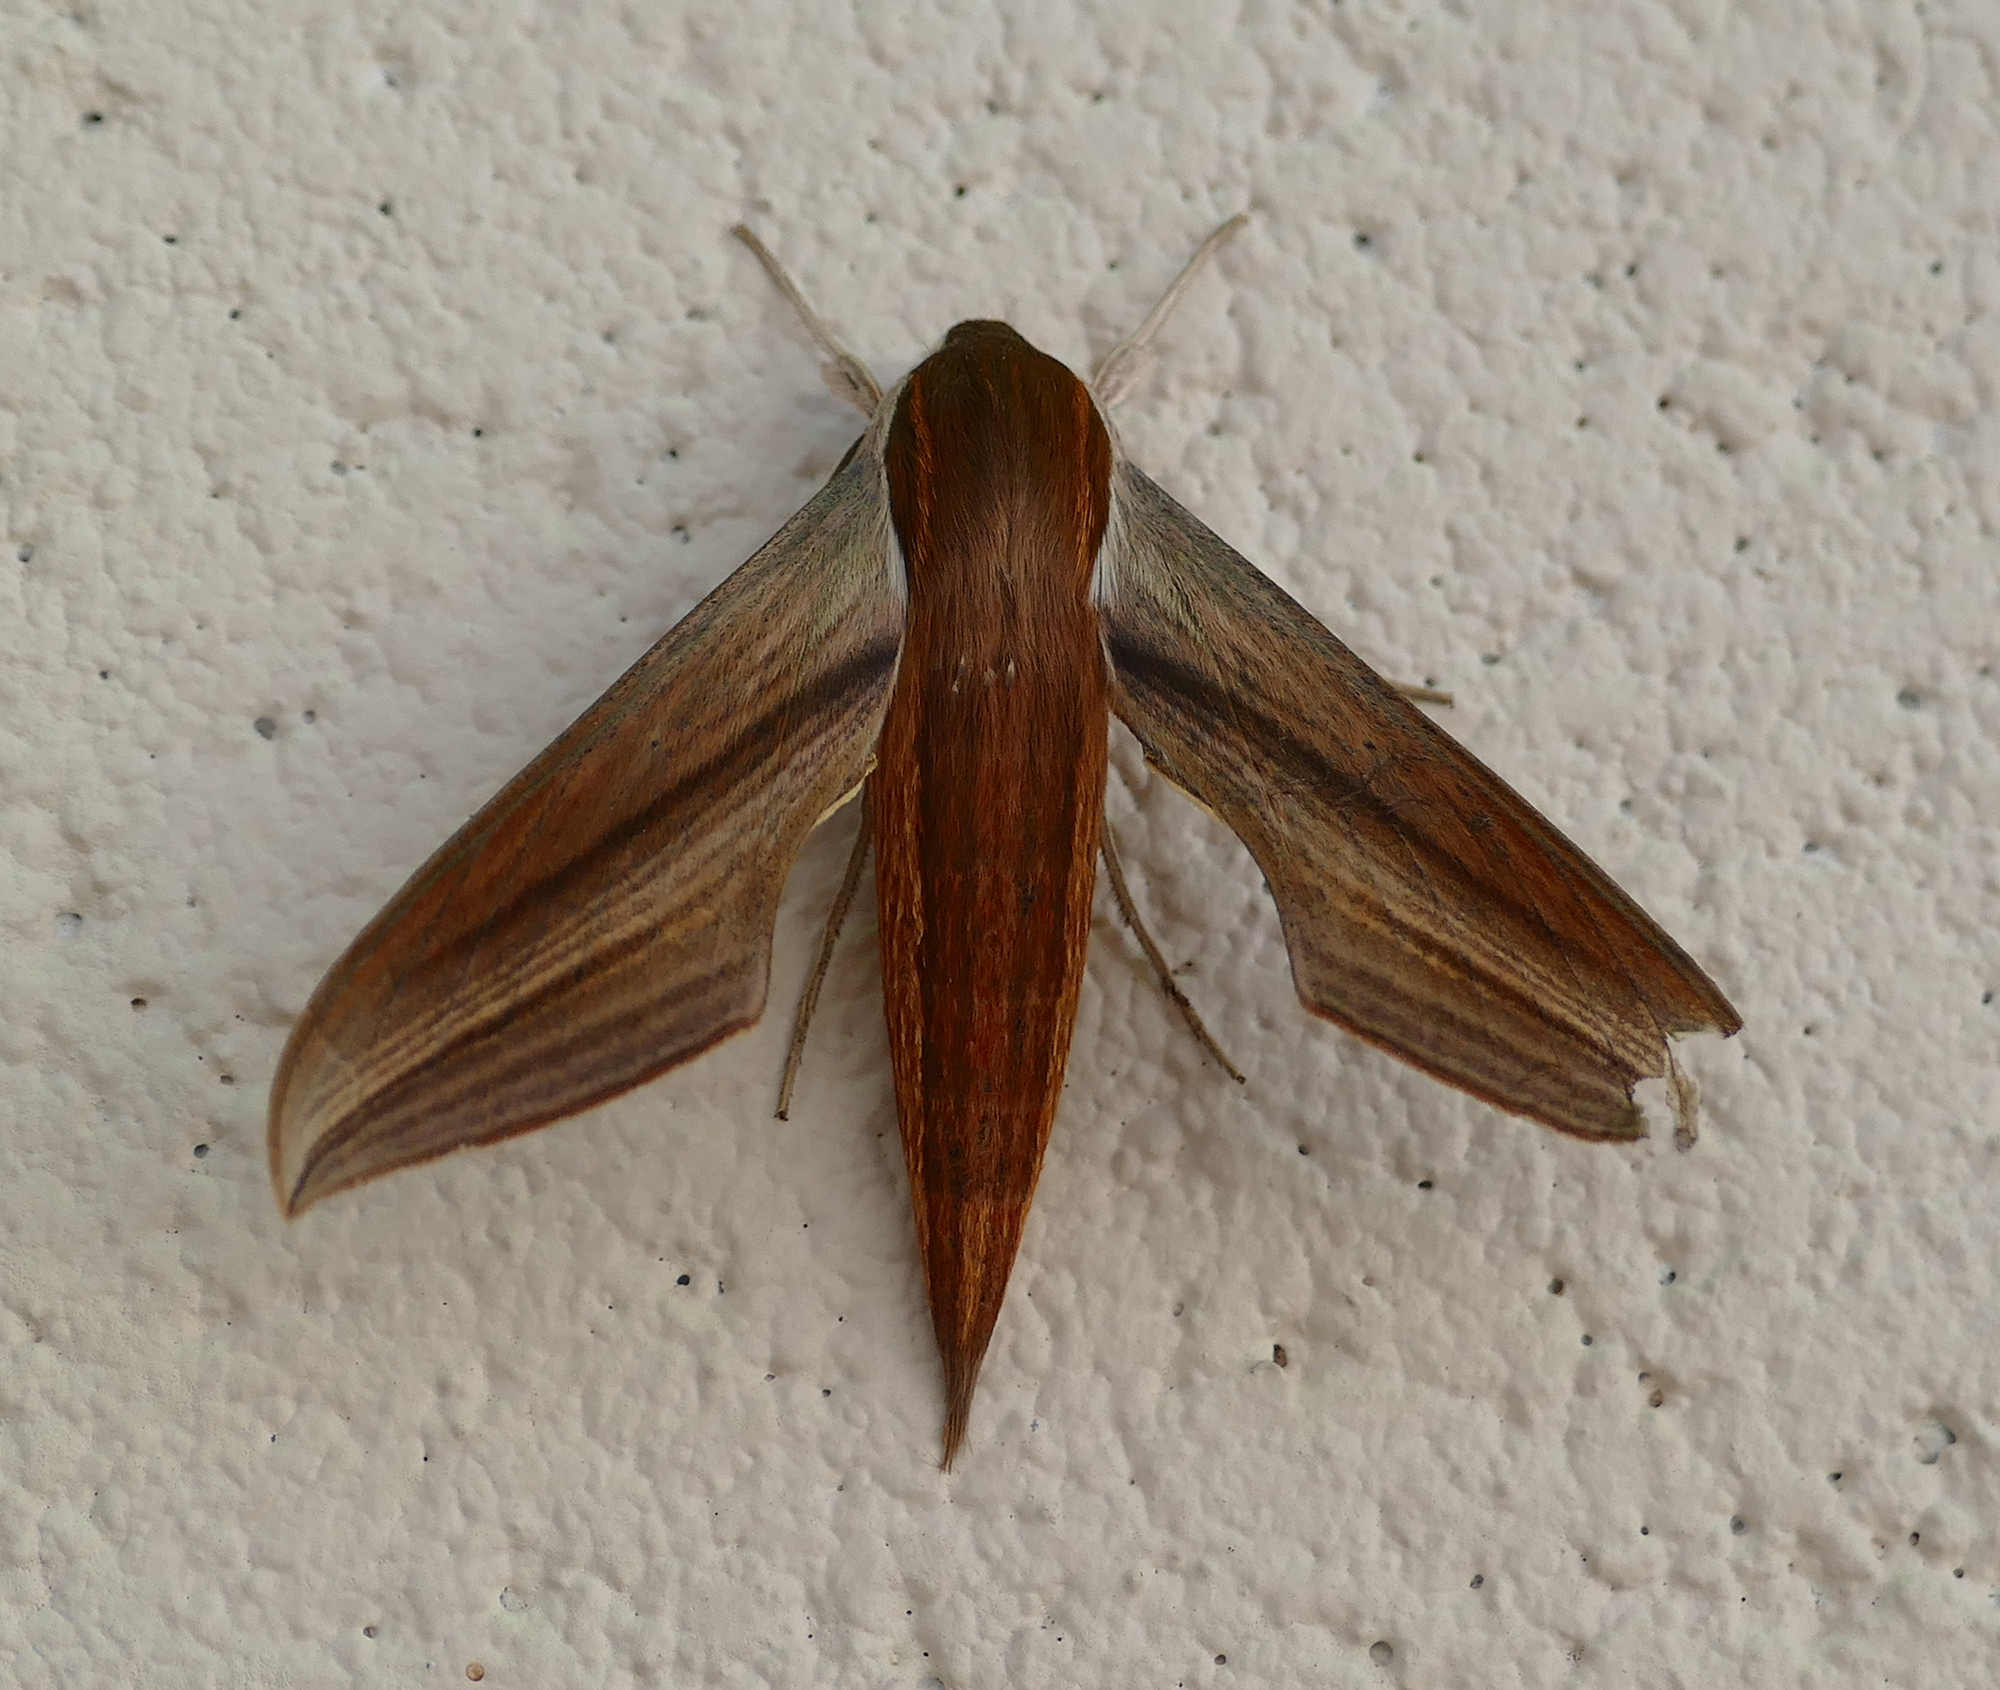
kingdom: Animalia
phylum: Arthropoda
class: Insecta
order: Lepidoptera
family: Sphingidae
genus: Xylophanes
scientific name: Xylophanes tersa
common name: Tersa sphinx
